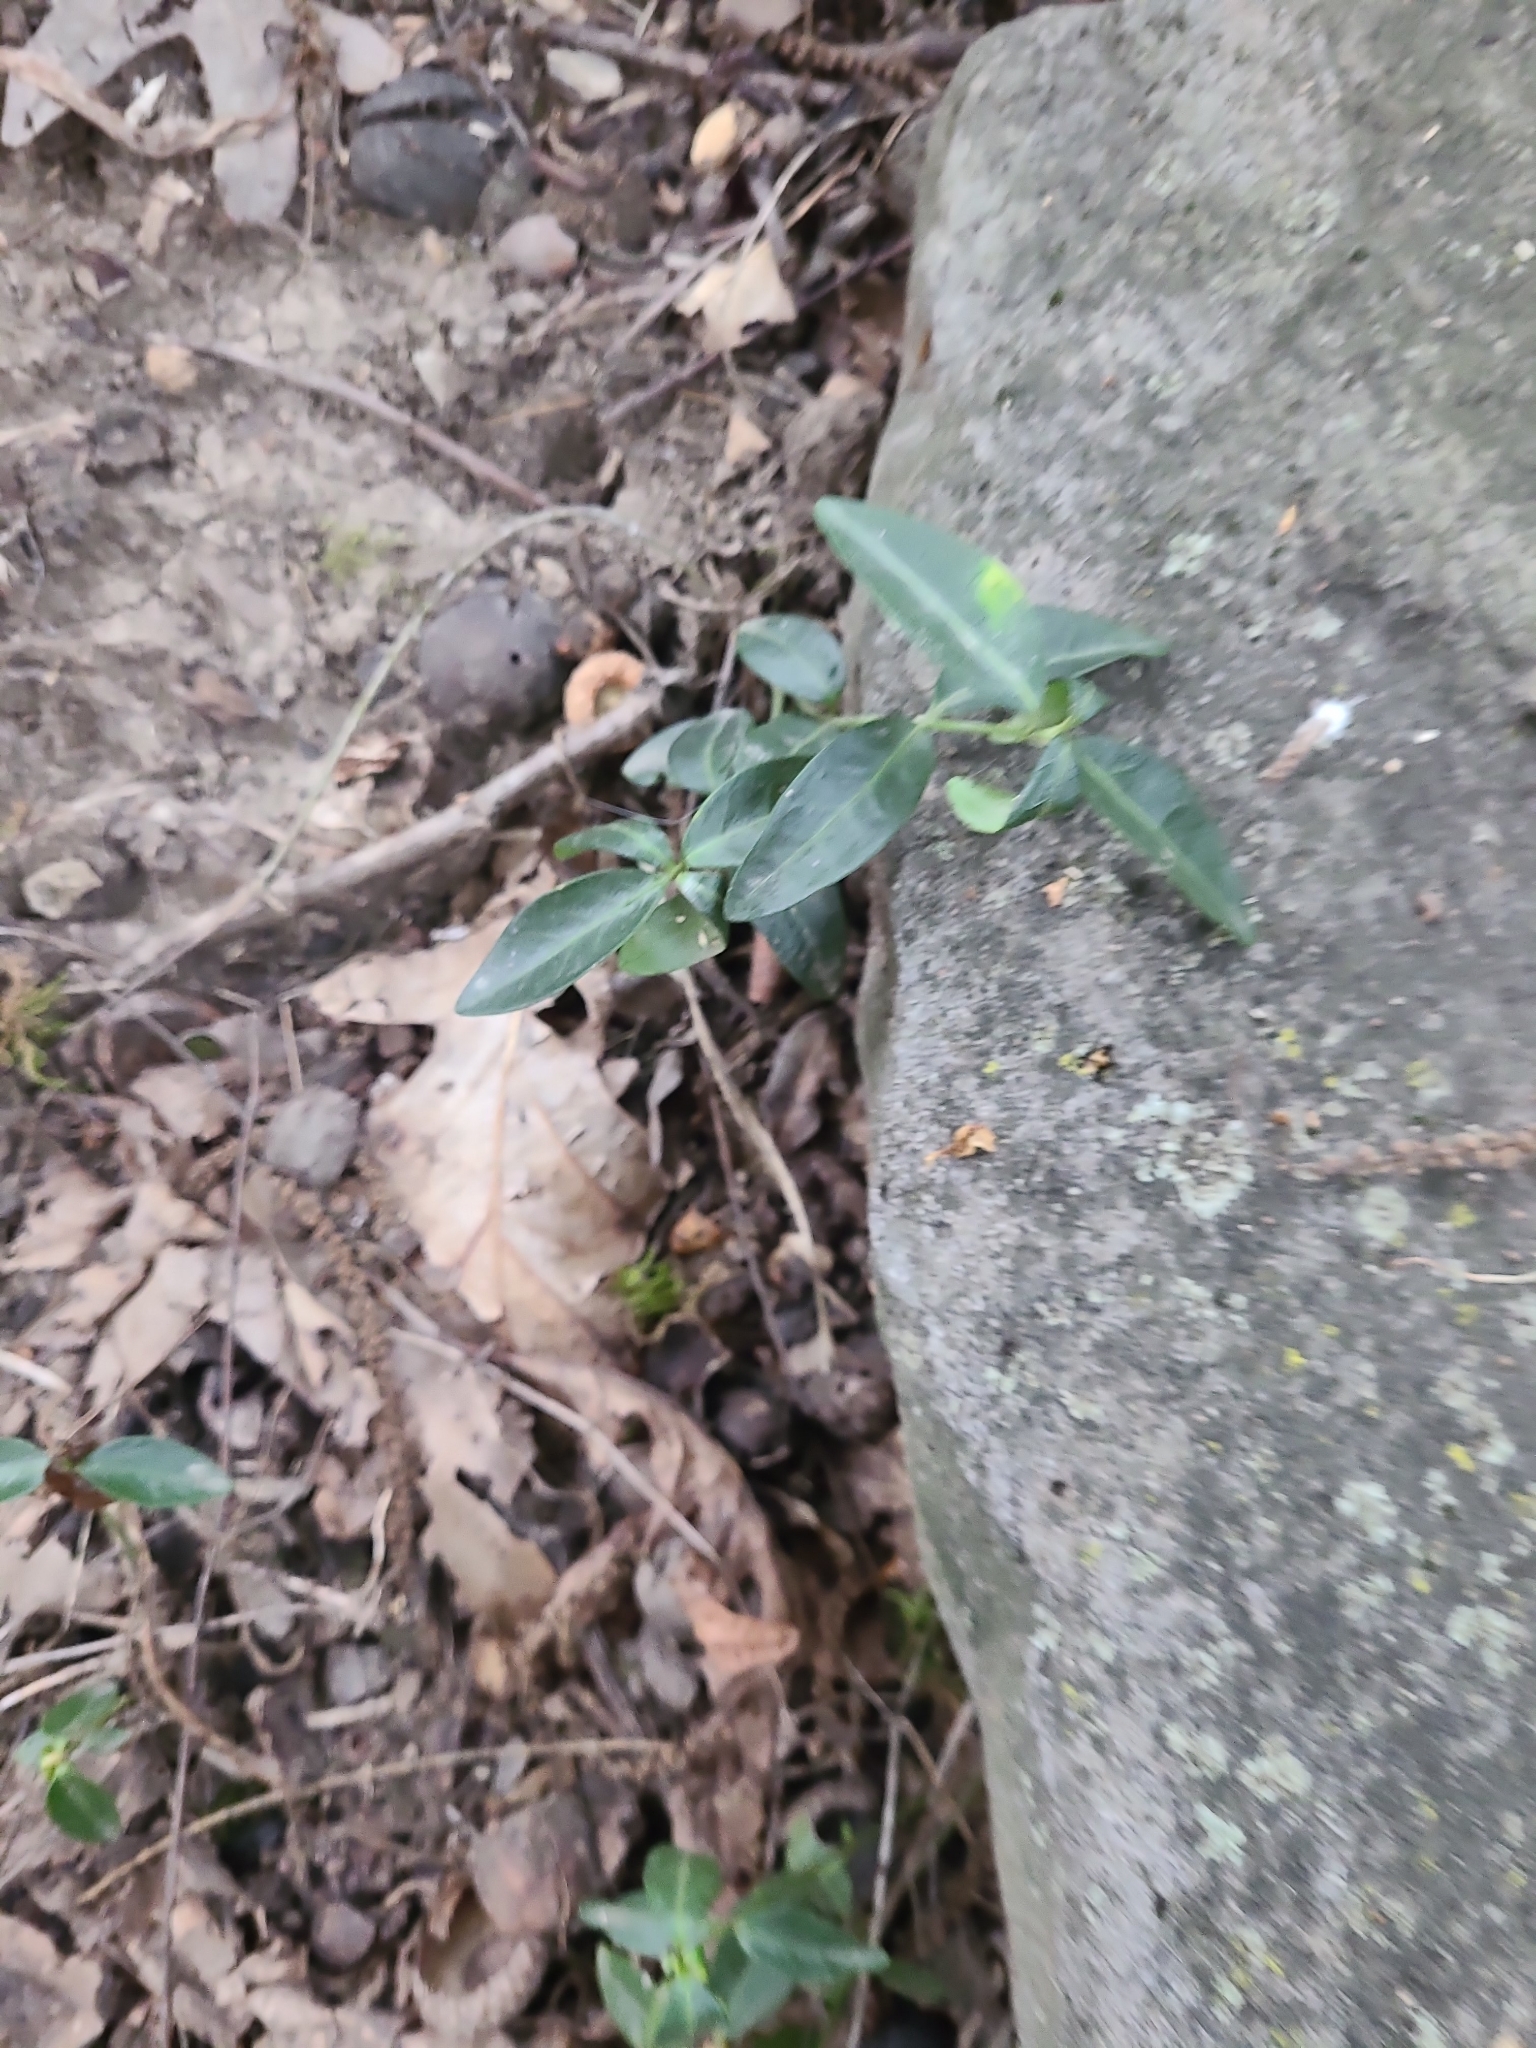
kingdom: Plantae
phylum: Tracheophyta
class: Magnoliopsida
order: Celastrales
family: Celastraceae
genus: Euonymus
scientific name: Euonymus fortunei
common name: Climbing euonymus
